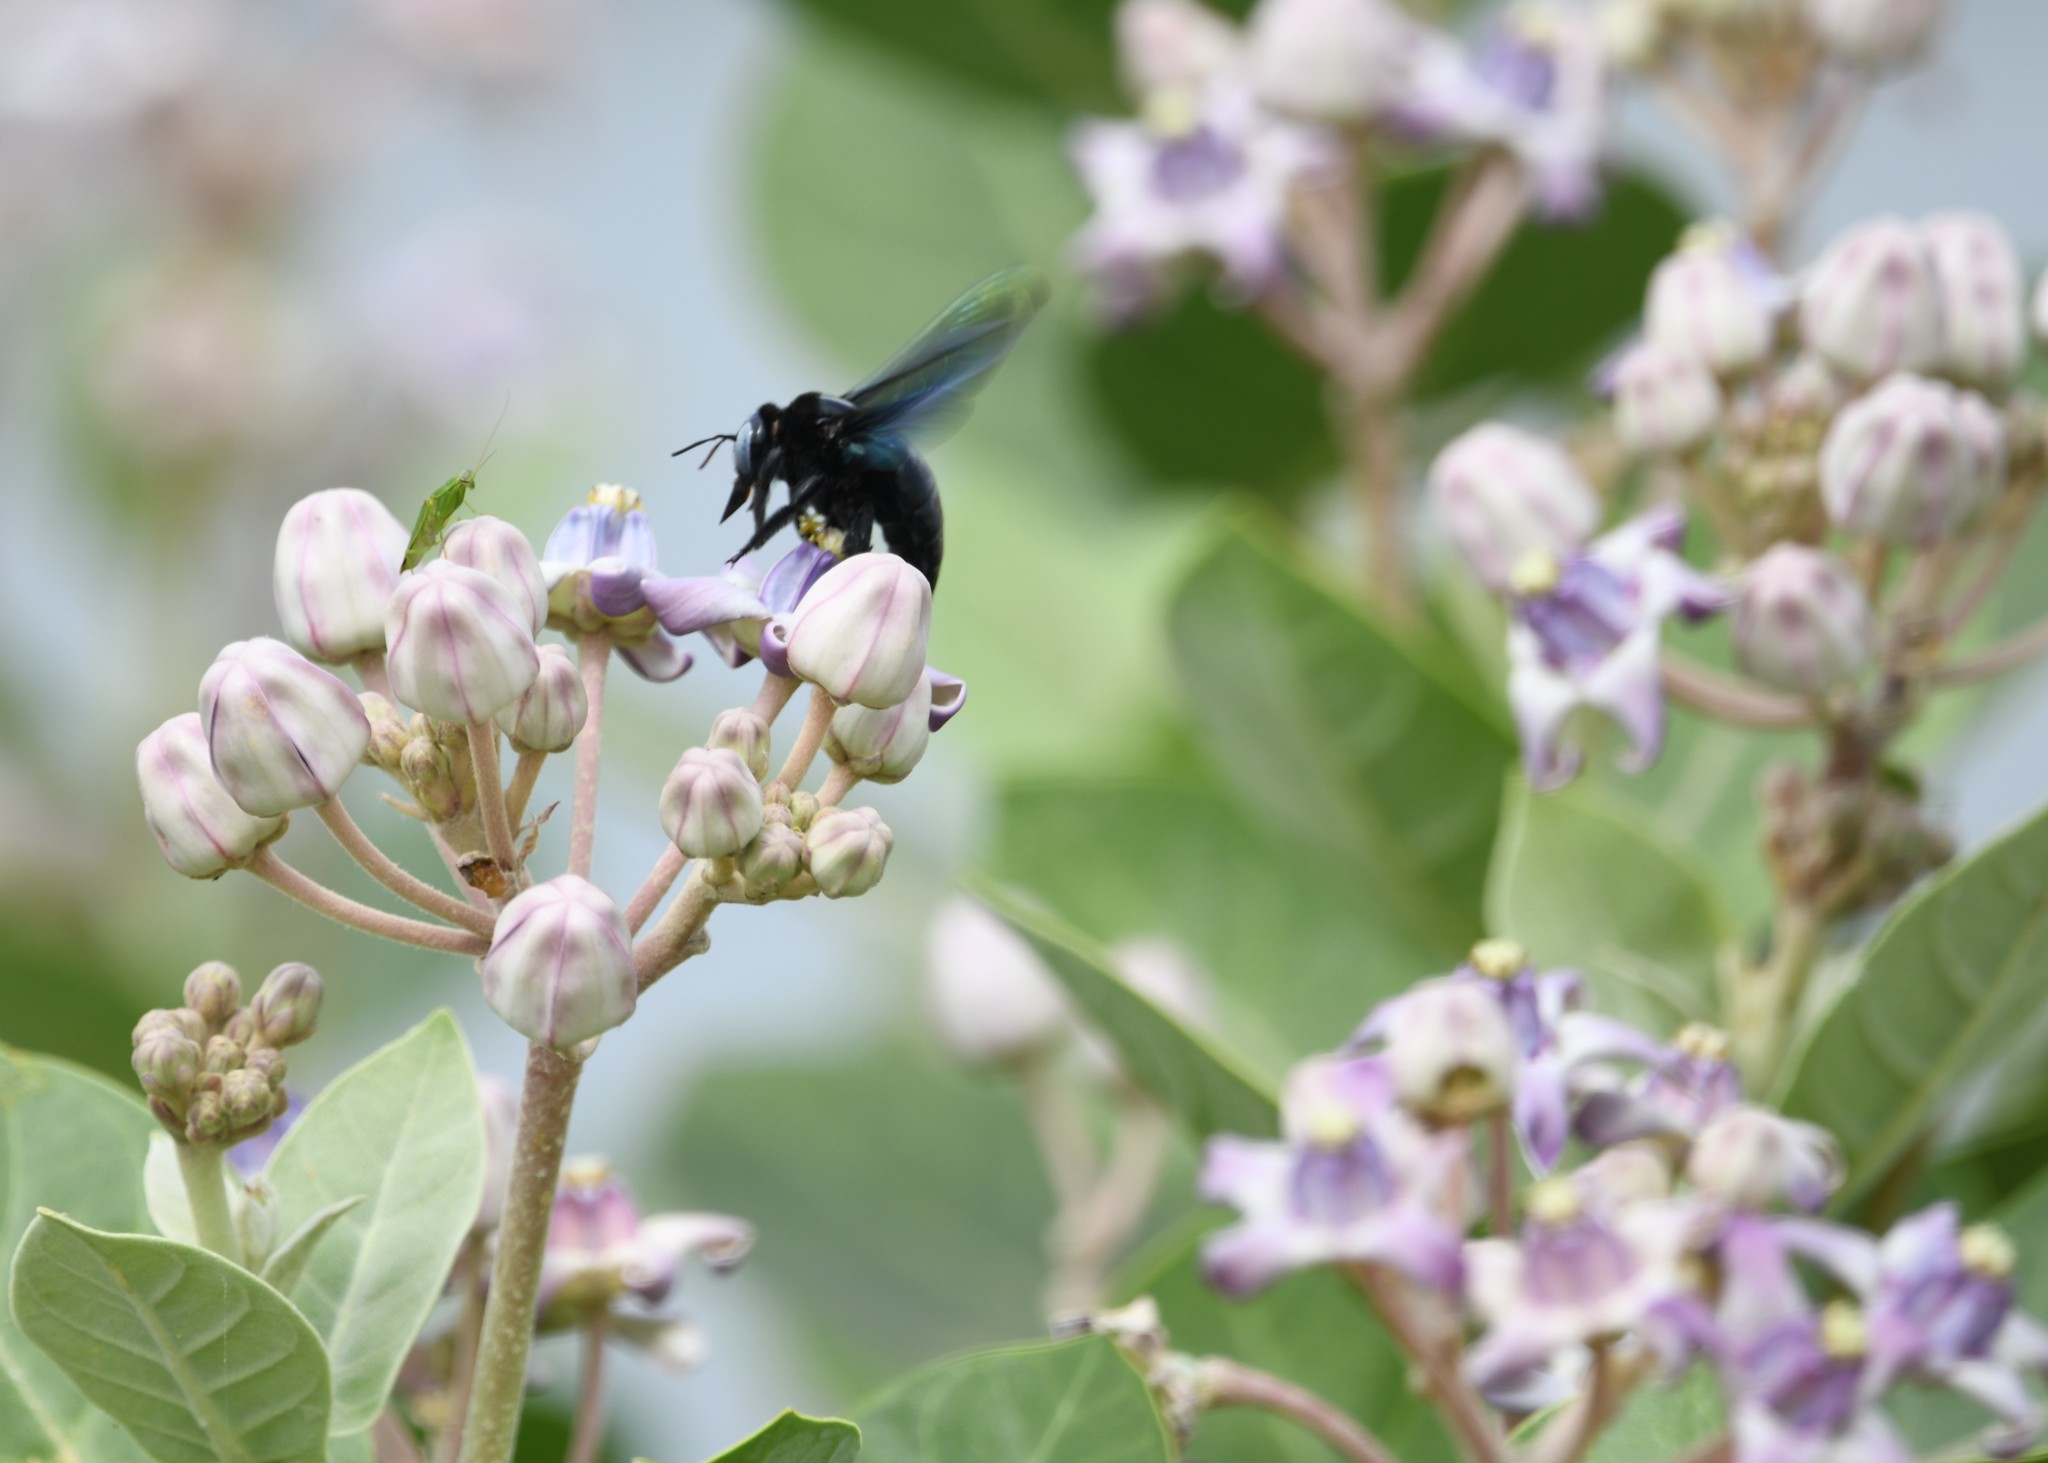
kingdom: Animalia
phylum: Arthropoda
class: Insecta
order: Hymenoptera
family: Apidae
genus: Xylocopa
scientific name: Xylocopa tenuiscapa
